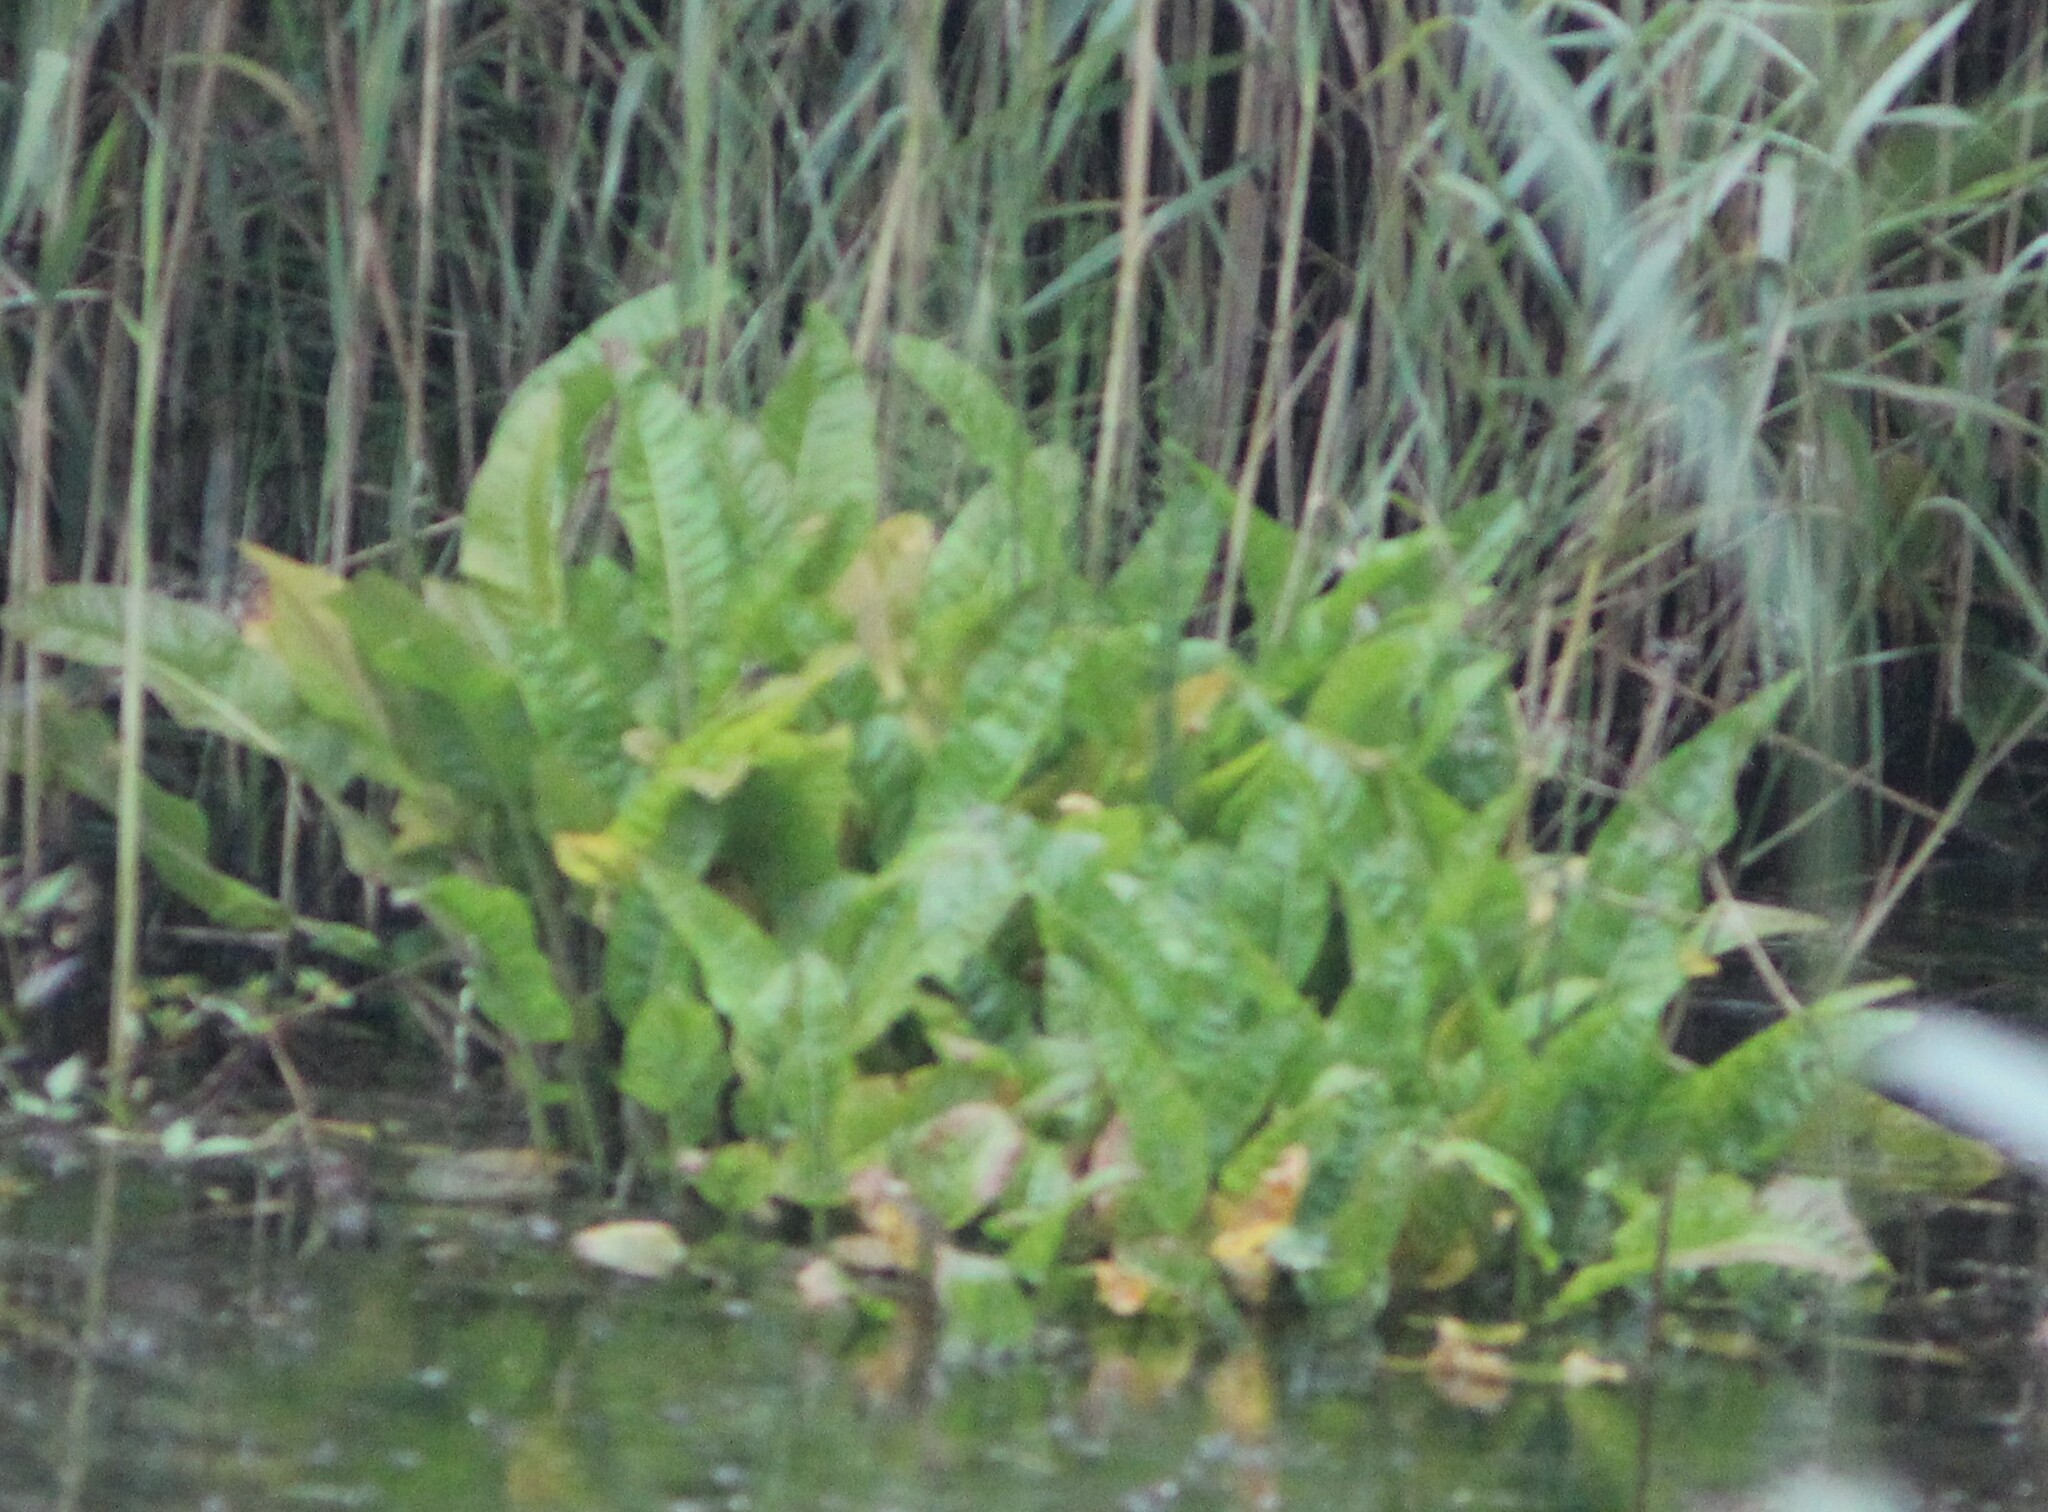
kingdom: Plantae
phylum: Tracheophyta
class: Magnoliopsida
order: Caryophyllales
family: Polygonaceae
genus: Rumex
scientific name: Rumex
